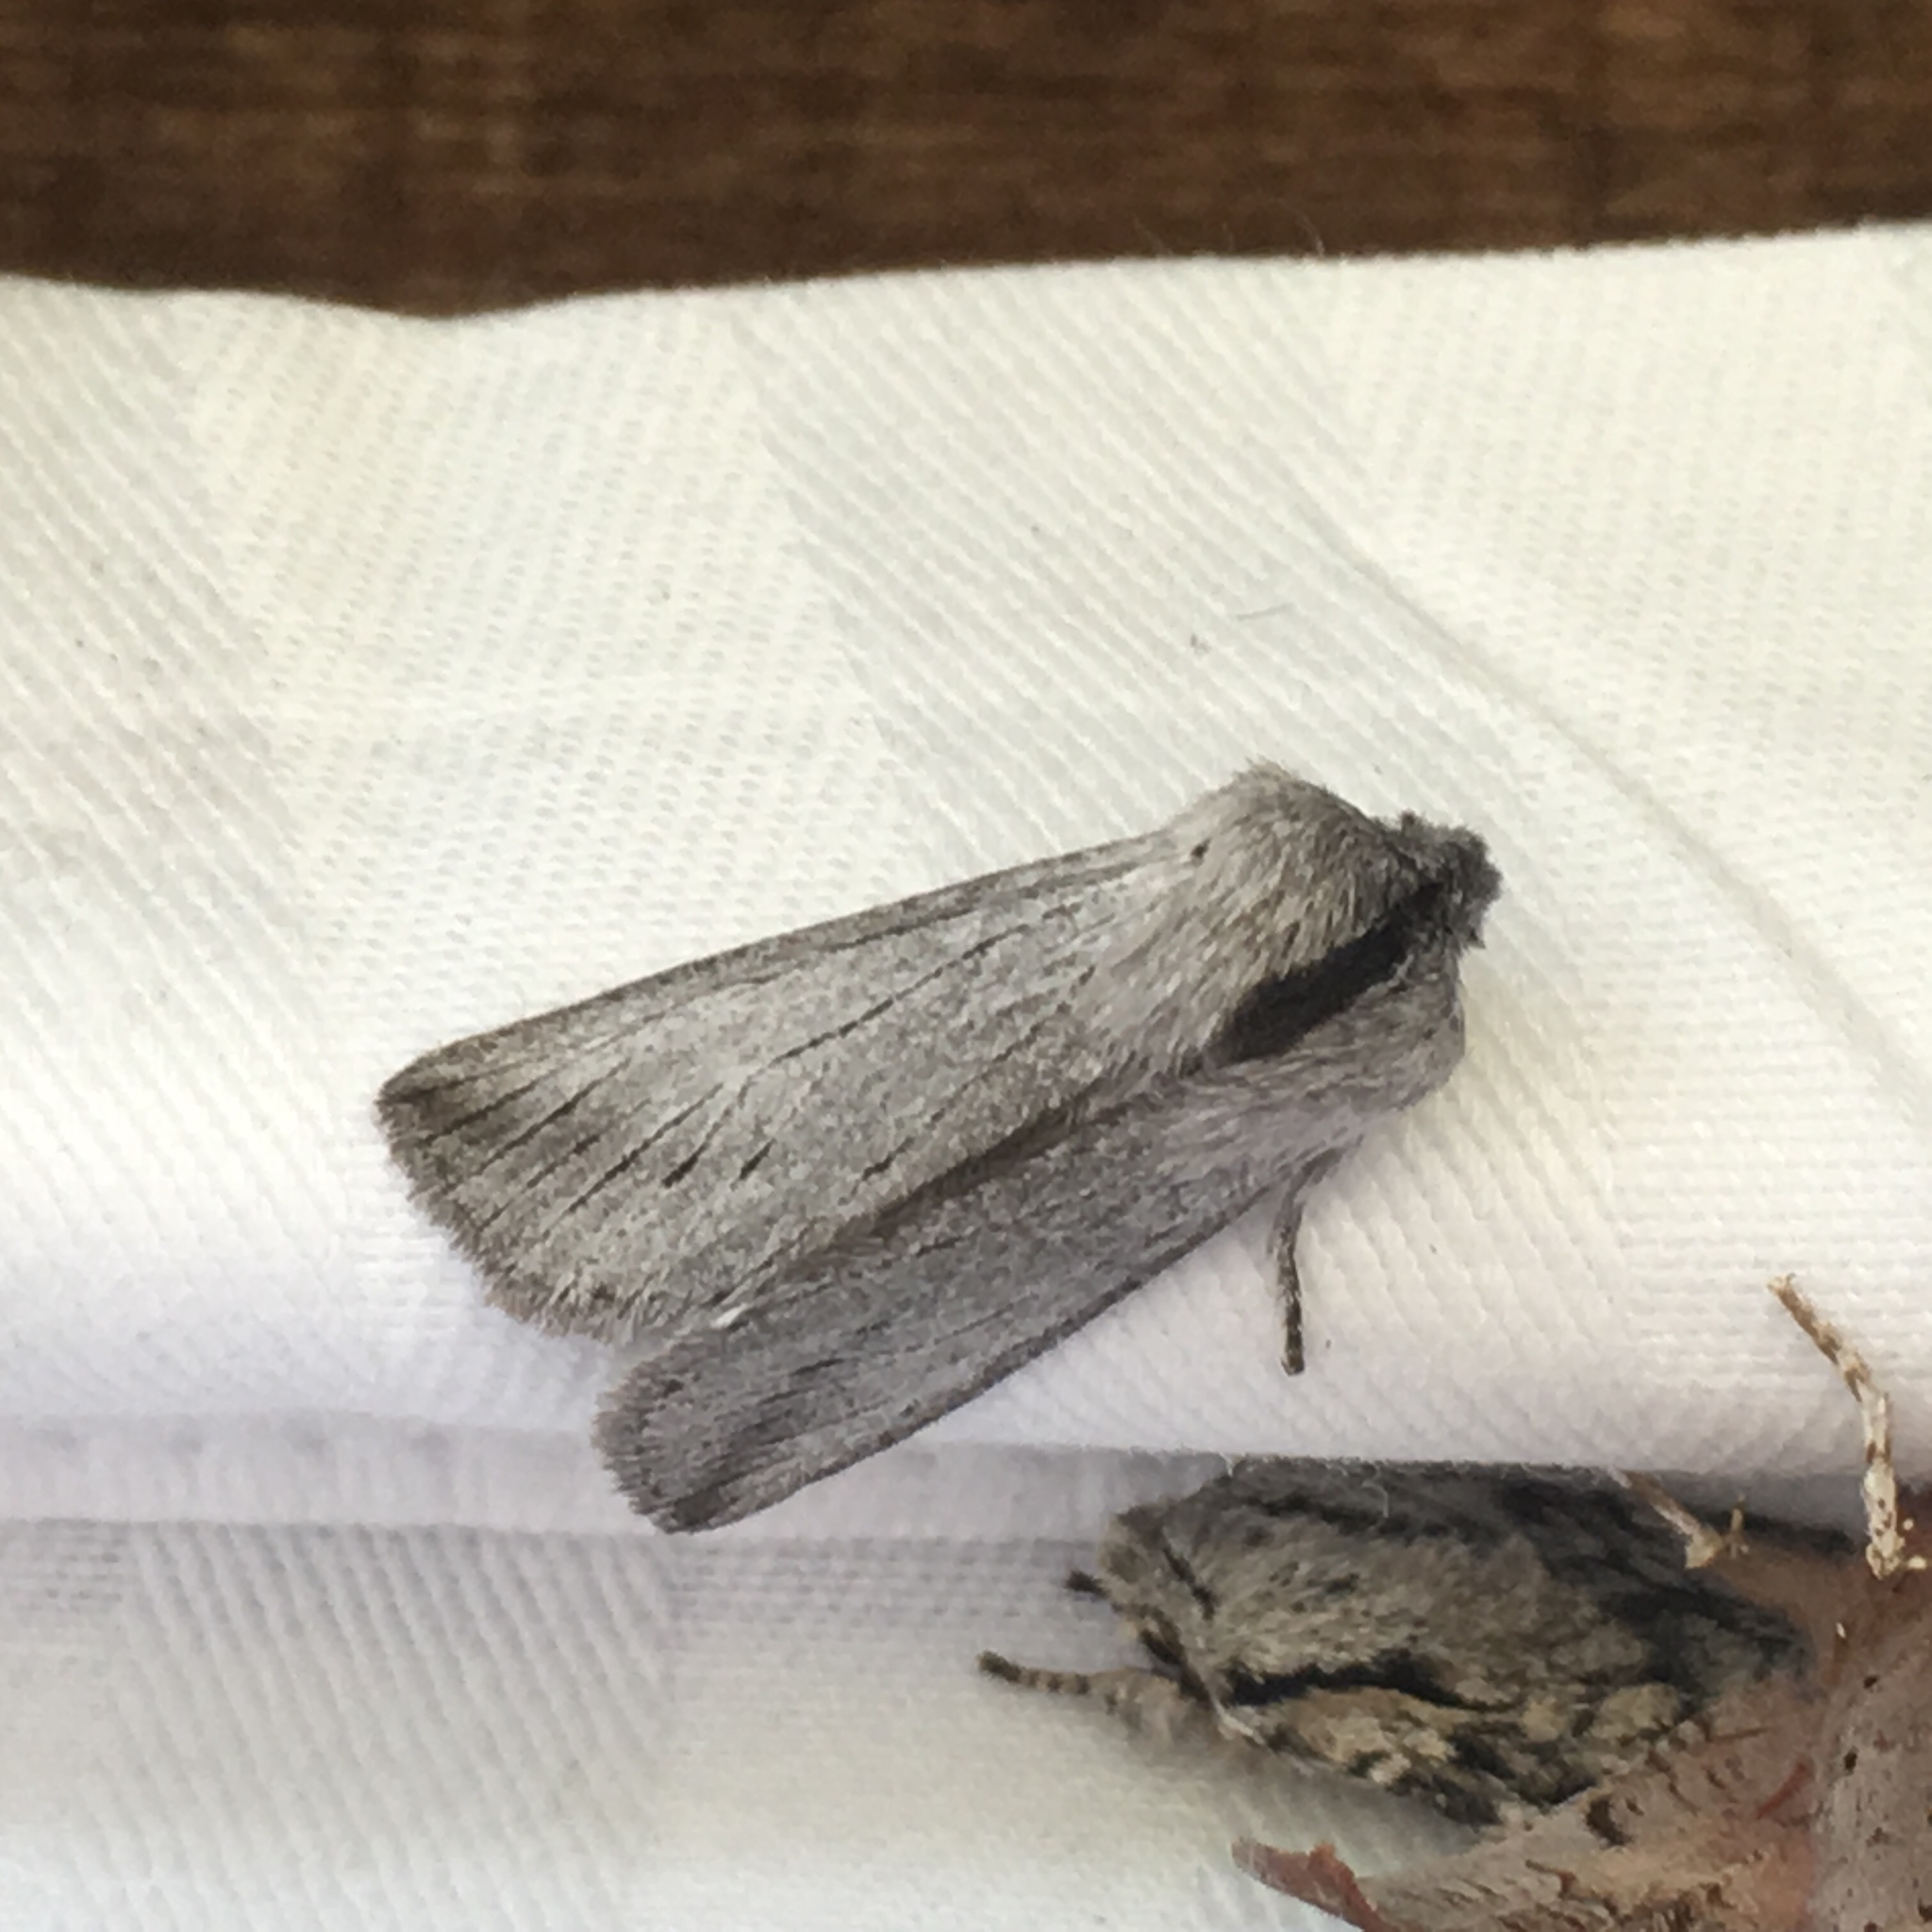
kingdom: Animalia
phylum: Arthropoda
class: Insecta
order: Lepidoptera
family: Noctuidae
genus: Pleromella
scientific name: Pleromella opter
